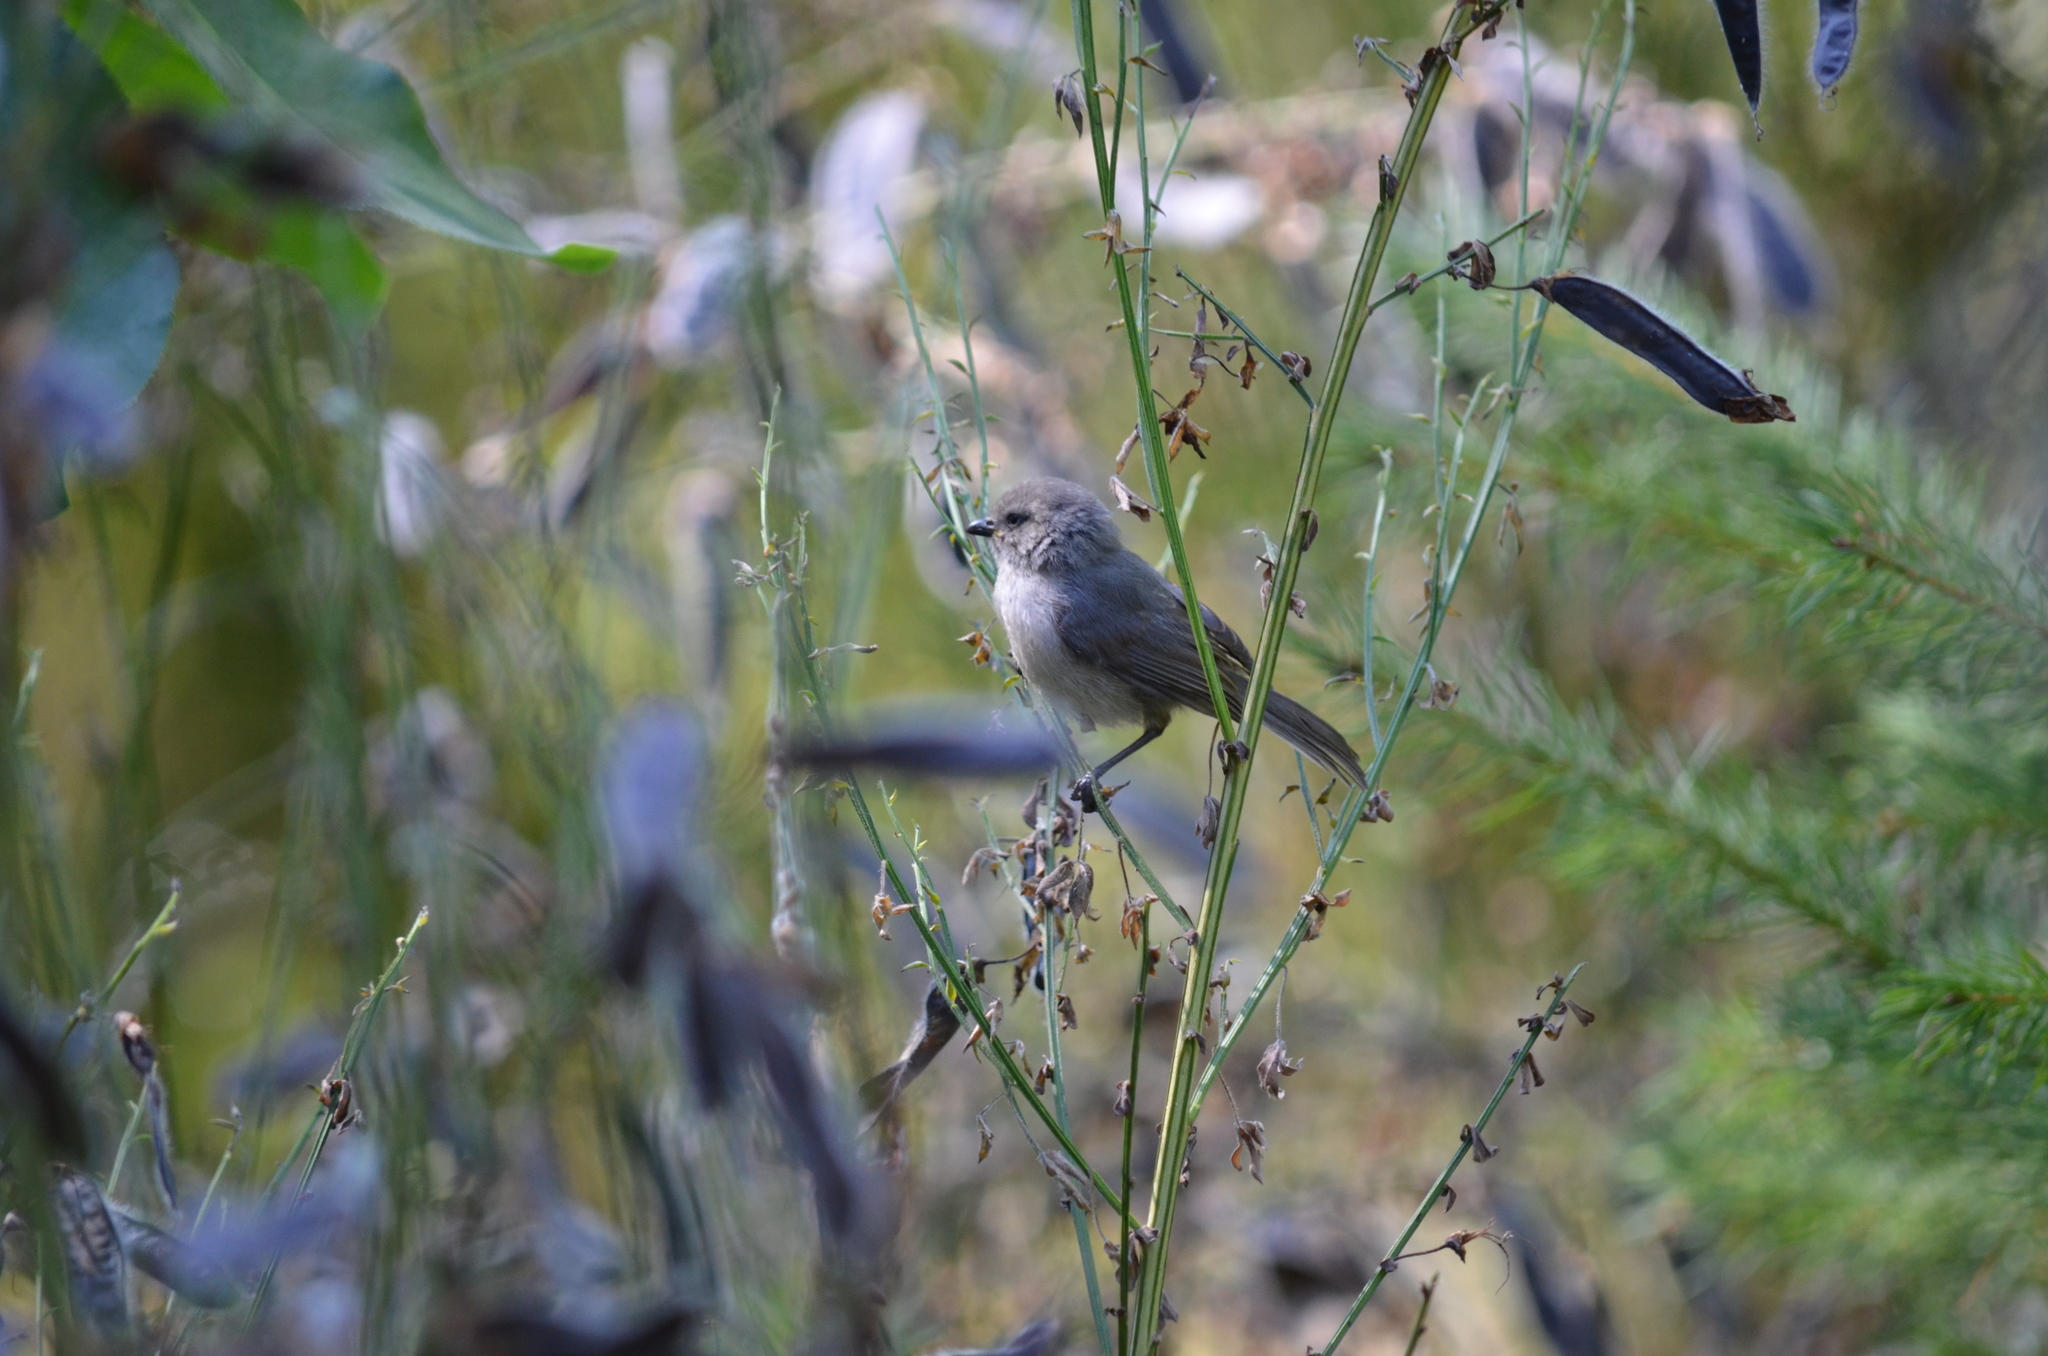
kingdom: Animalia
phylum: Chordata
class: Aves
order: Passeriformes
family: Aegithalidae
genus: Psaltriparus
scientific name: Psaltriparus minimus
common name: American bushtit
